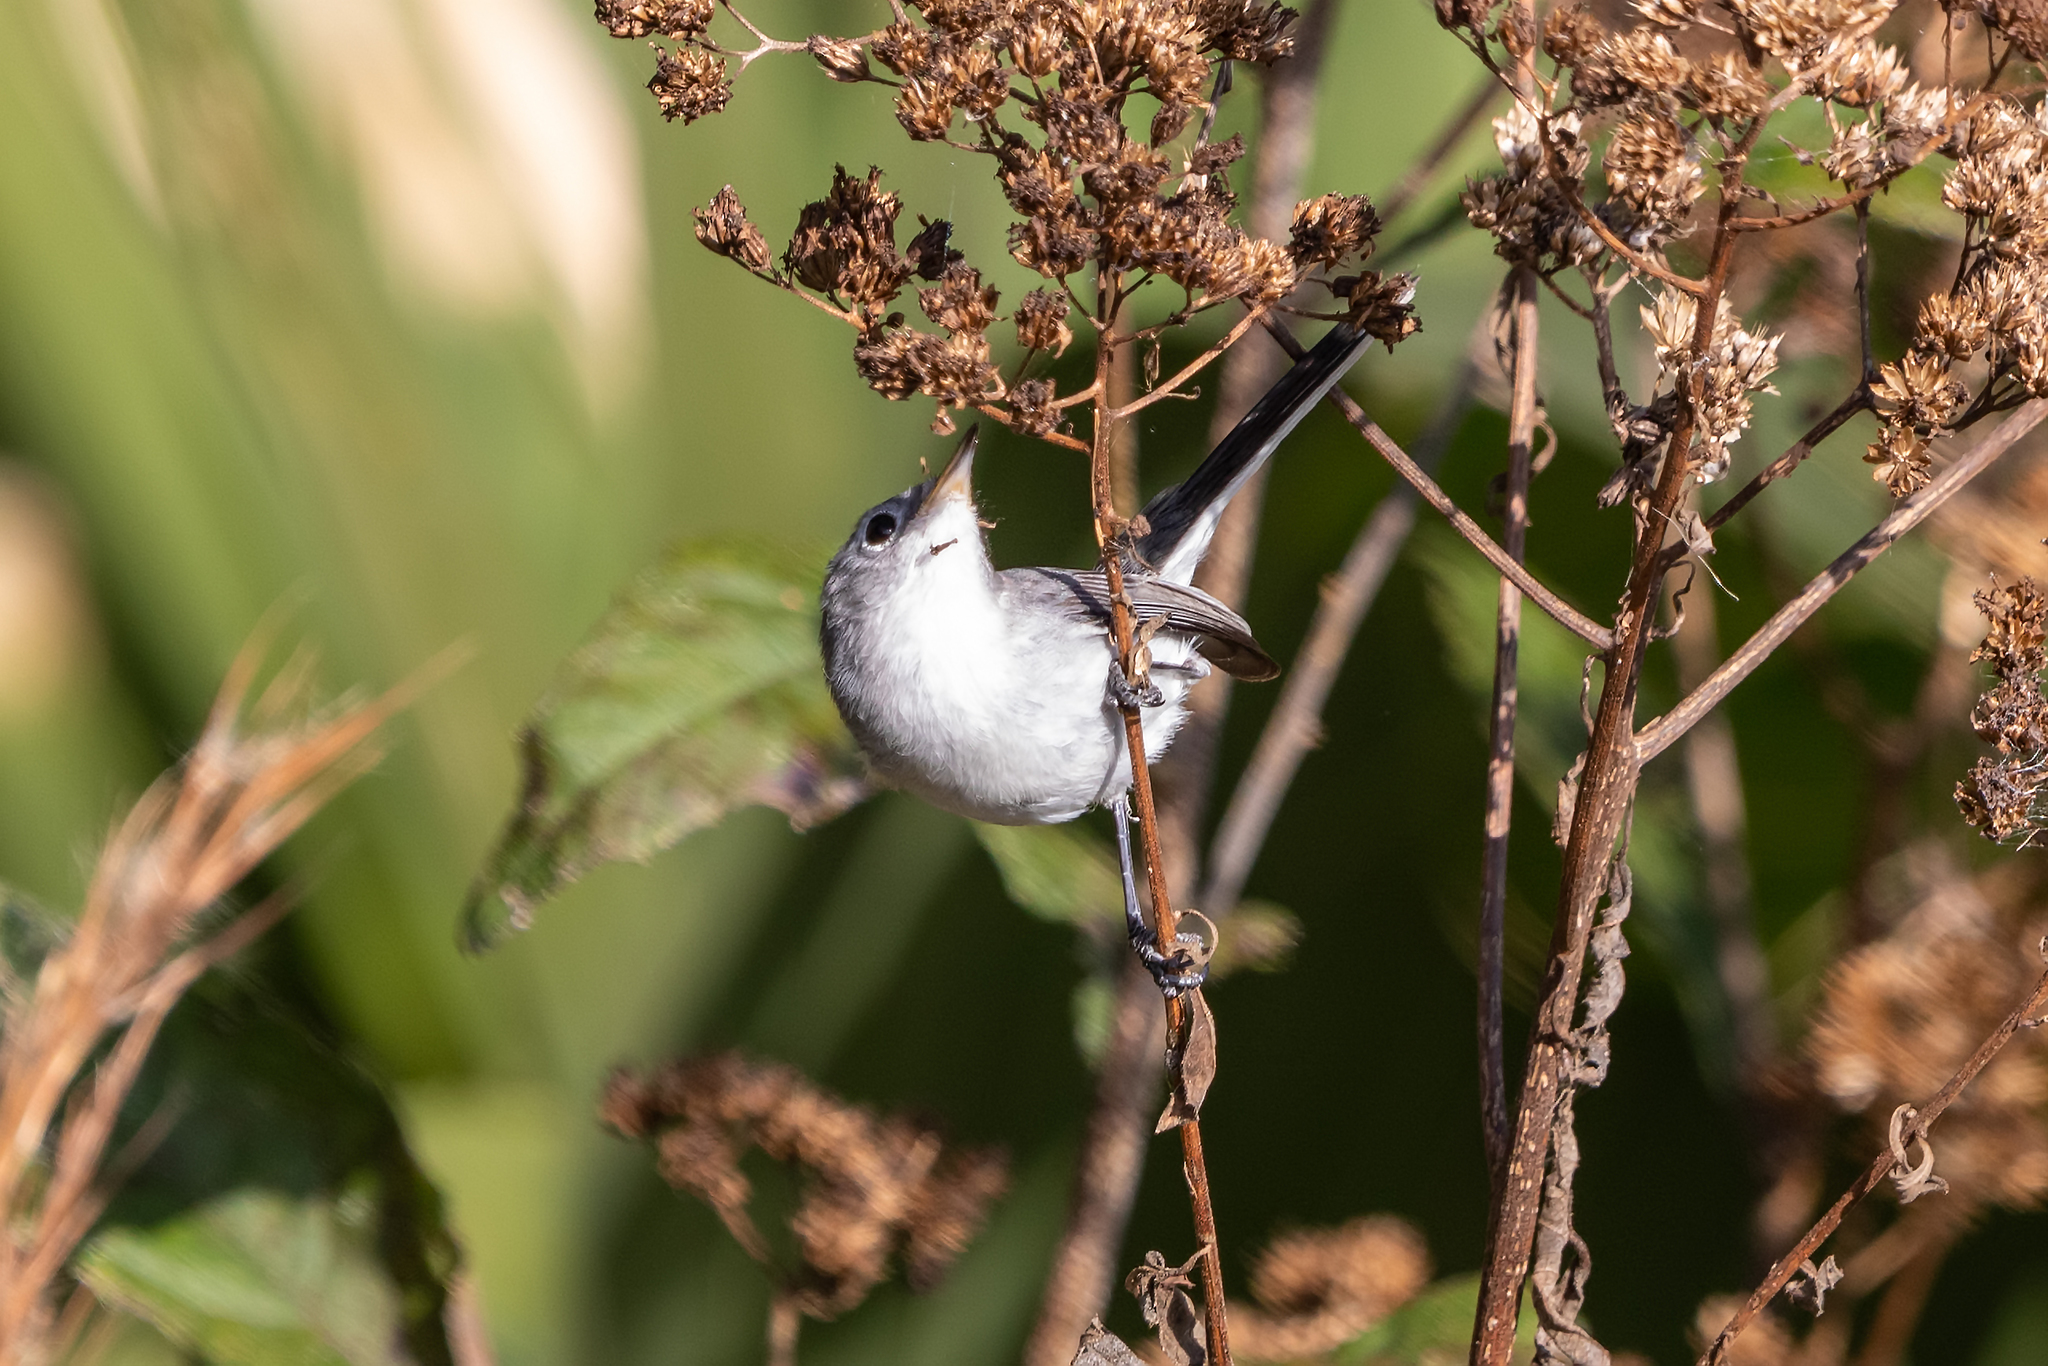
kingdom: Animalia
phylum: Chordata
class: Aves
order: Passeriformes
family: Polioptilidae
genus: Polioptila
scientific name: Polioptila caerulea
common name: Blue-gray gnatcatcher
